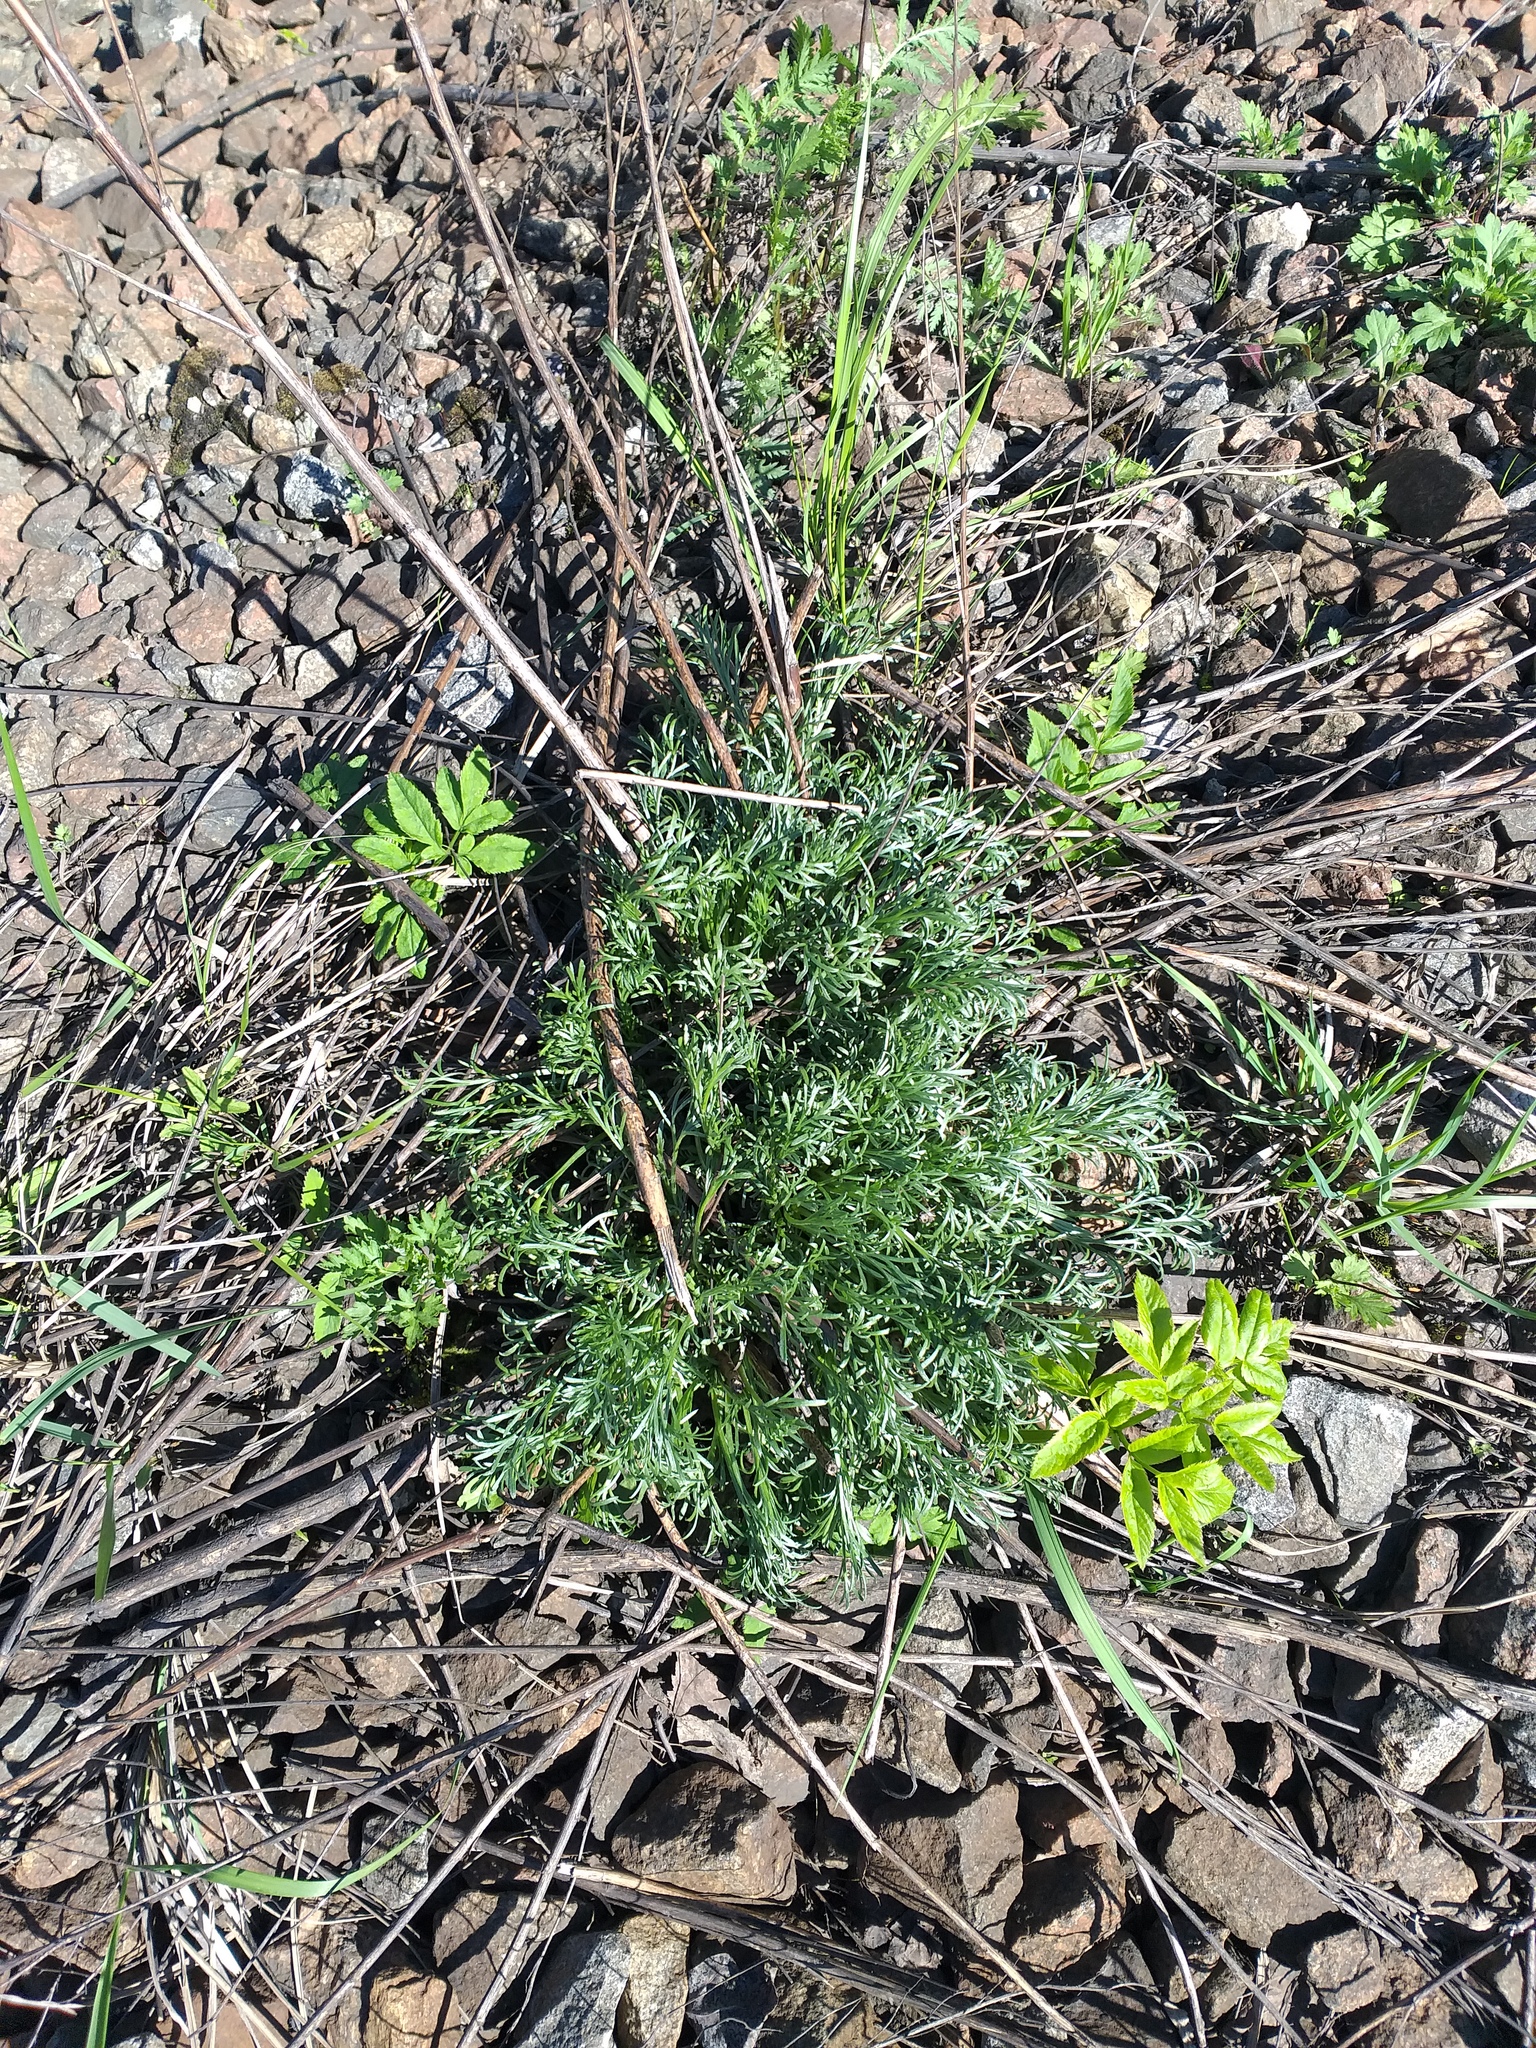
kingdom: Plantae
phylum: Tracheophyta
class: Magnoliopsida
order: Asterales
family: Asteraceae
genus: Artemisia
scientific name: Artemisia campestris
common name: Field wormwood
